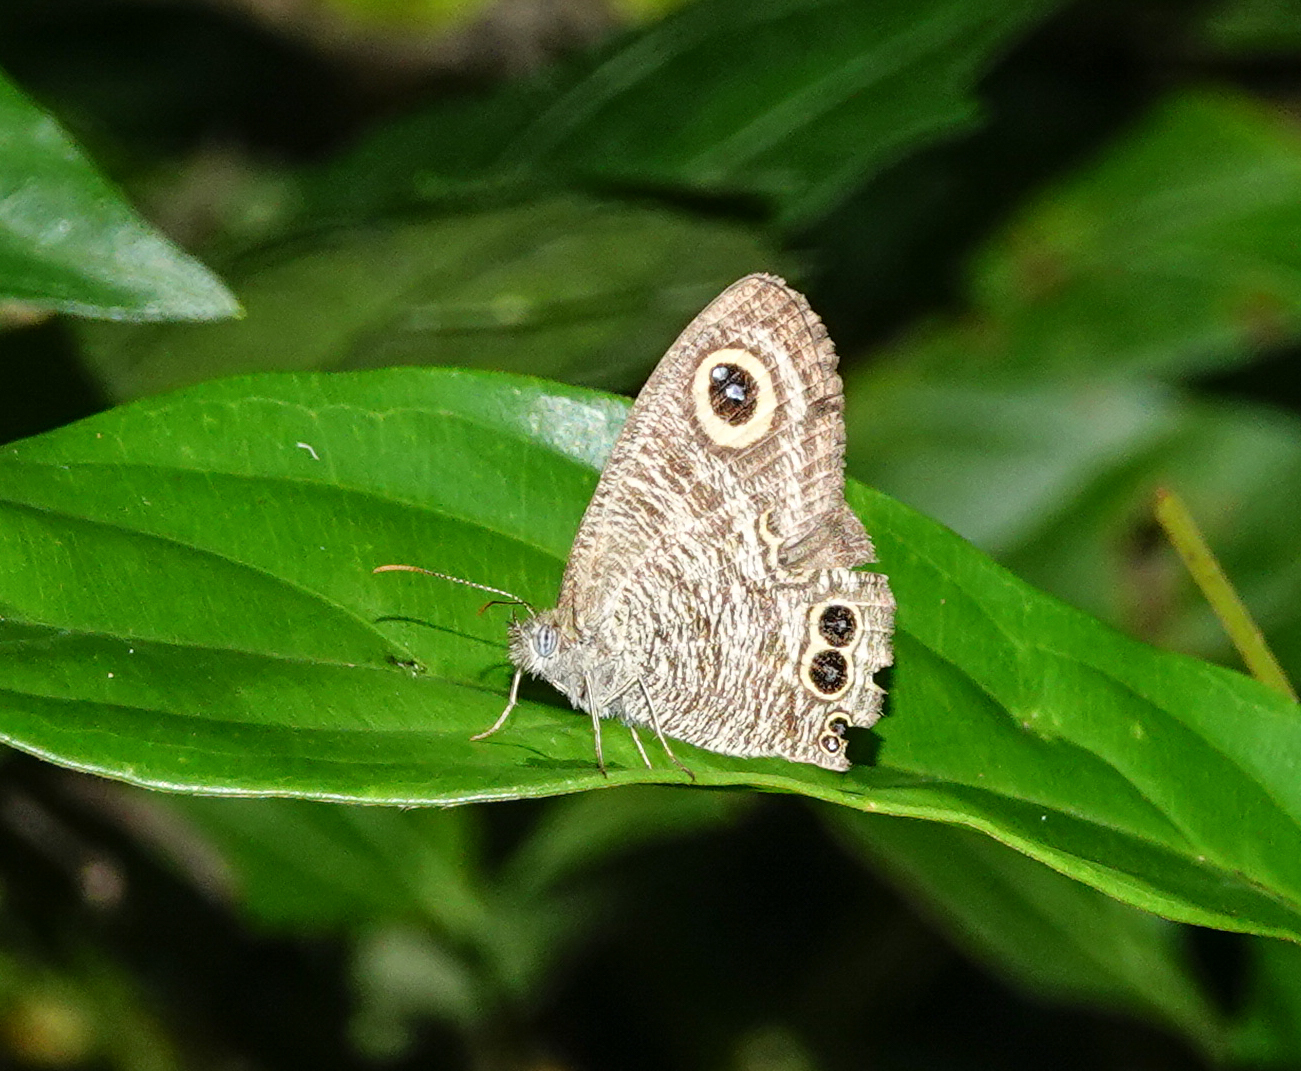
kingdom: Animalia
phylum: Arthropoda
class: Insecta
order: Lepidoptera
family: Nymphalidae
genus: Ypthima
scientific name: Ypthima baldus
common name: Common five-ring
